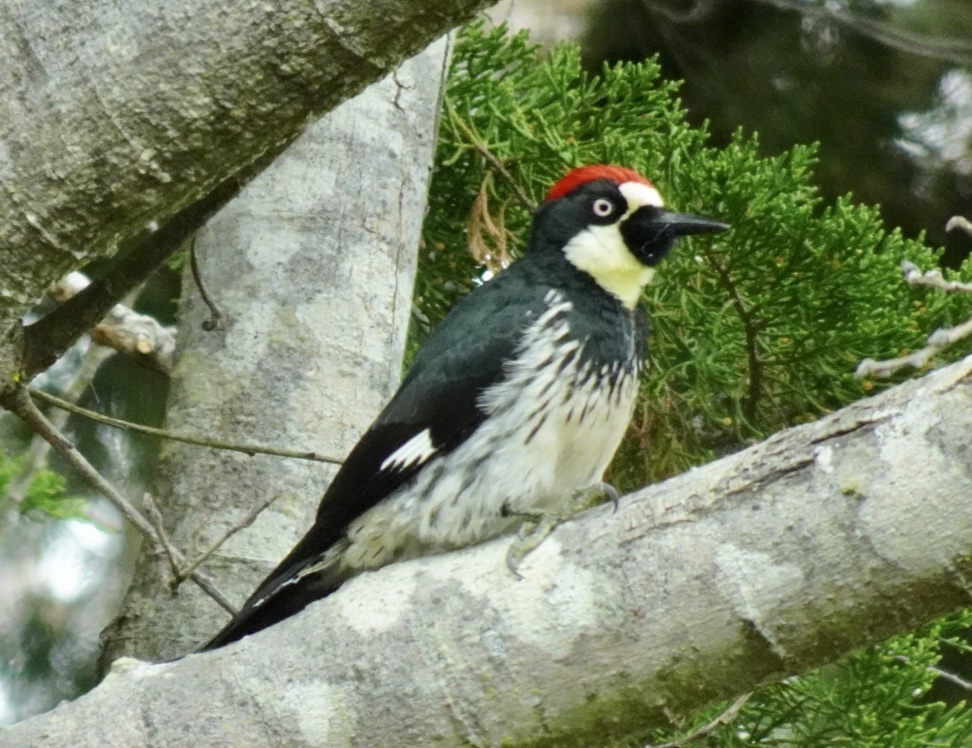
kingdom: Animalia
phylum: Chordata
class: Aves
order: Piciformes
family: Picidae
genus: Melanerpes
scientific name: Melanerpes formicivorus
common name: Acorn woodpecker
